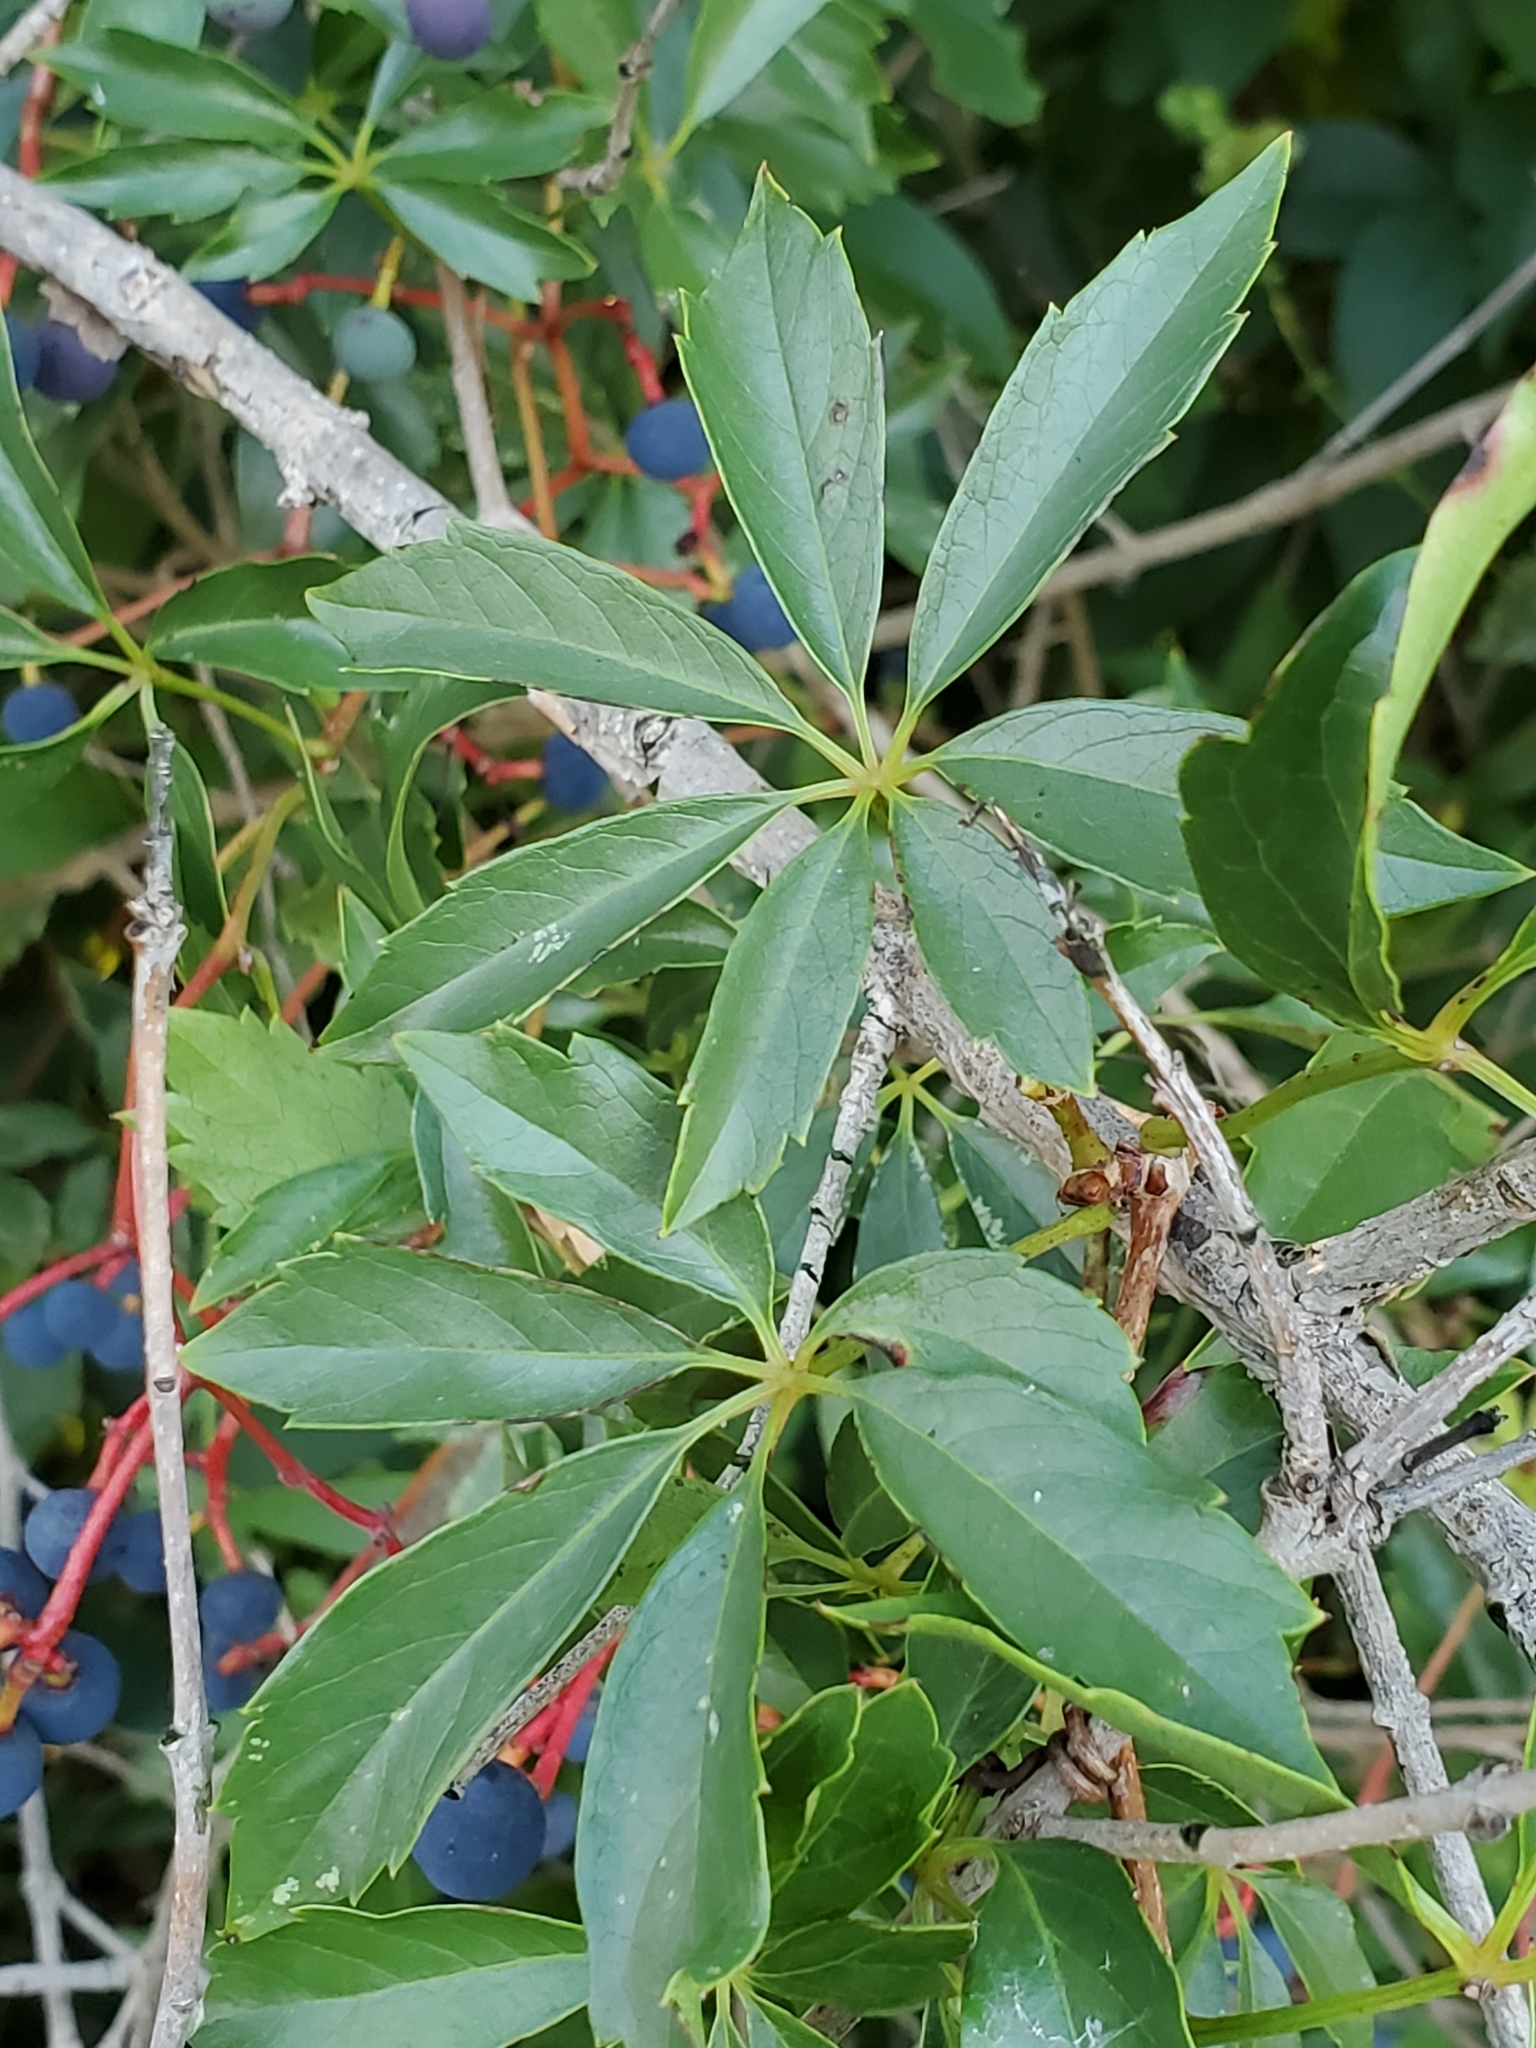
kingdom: Plantae
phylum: Tracheophyta
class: Magnoliopsida
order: Vitales
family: Vitaceae
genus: Parthenocissus
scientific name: Parthenocissus heptaphylla
